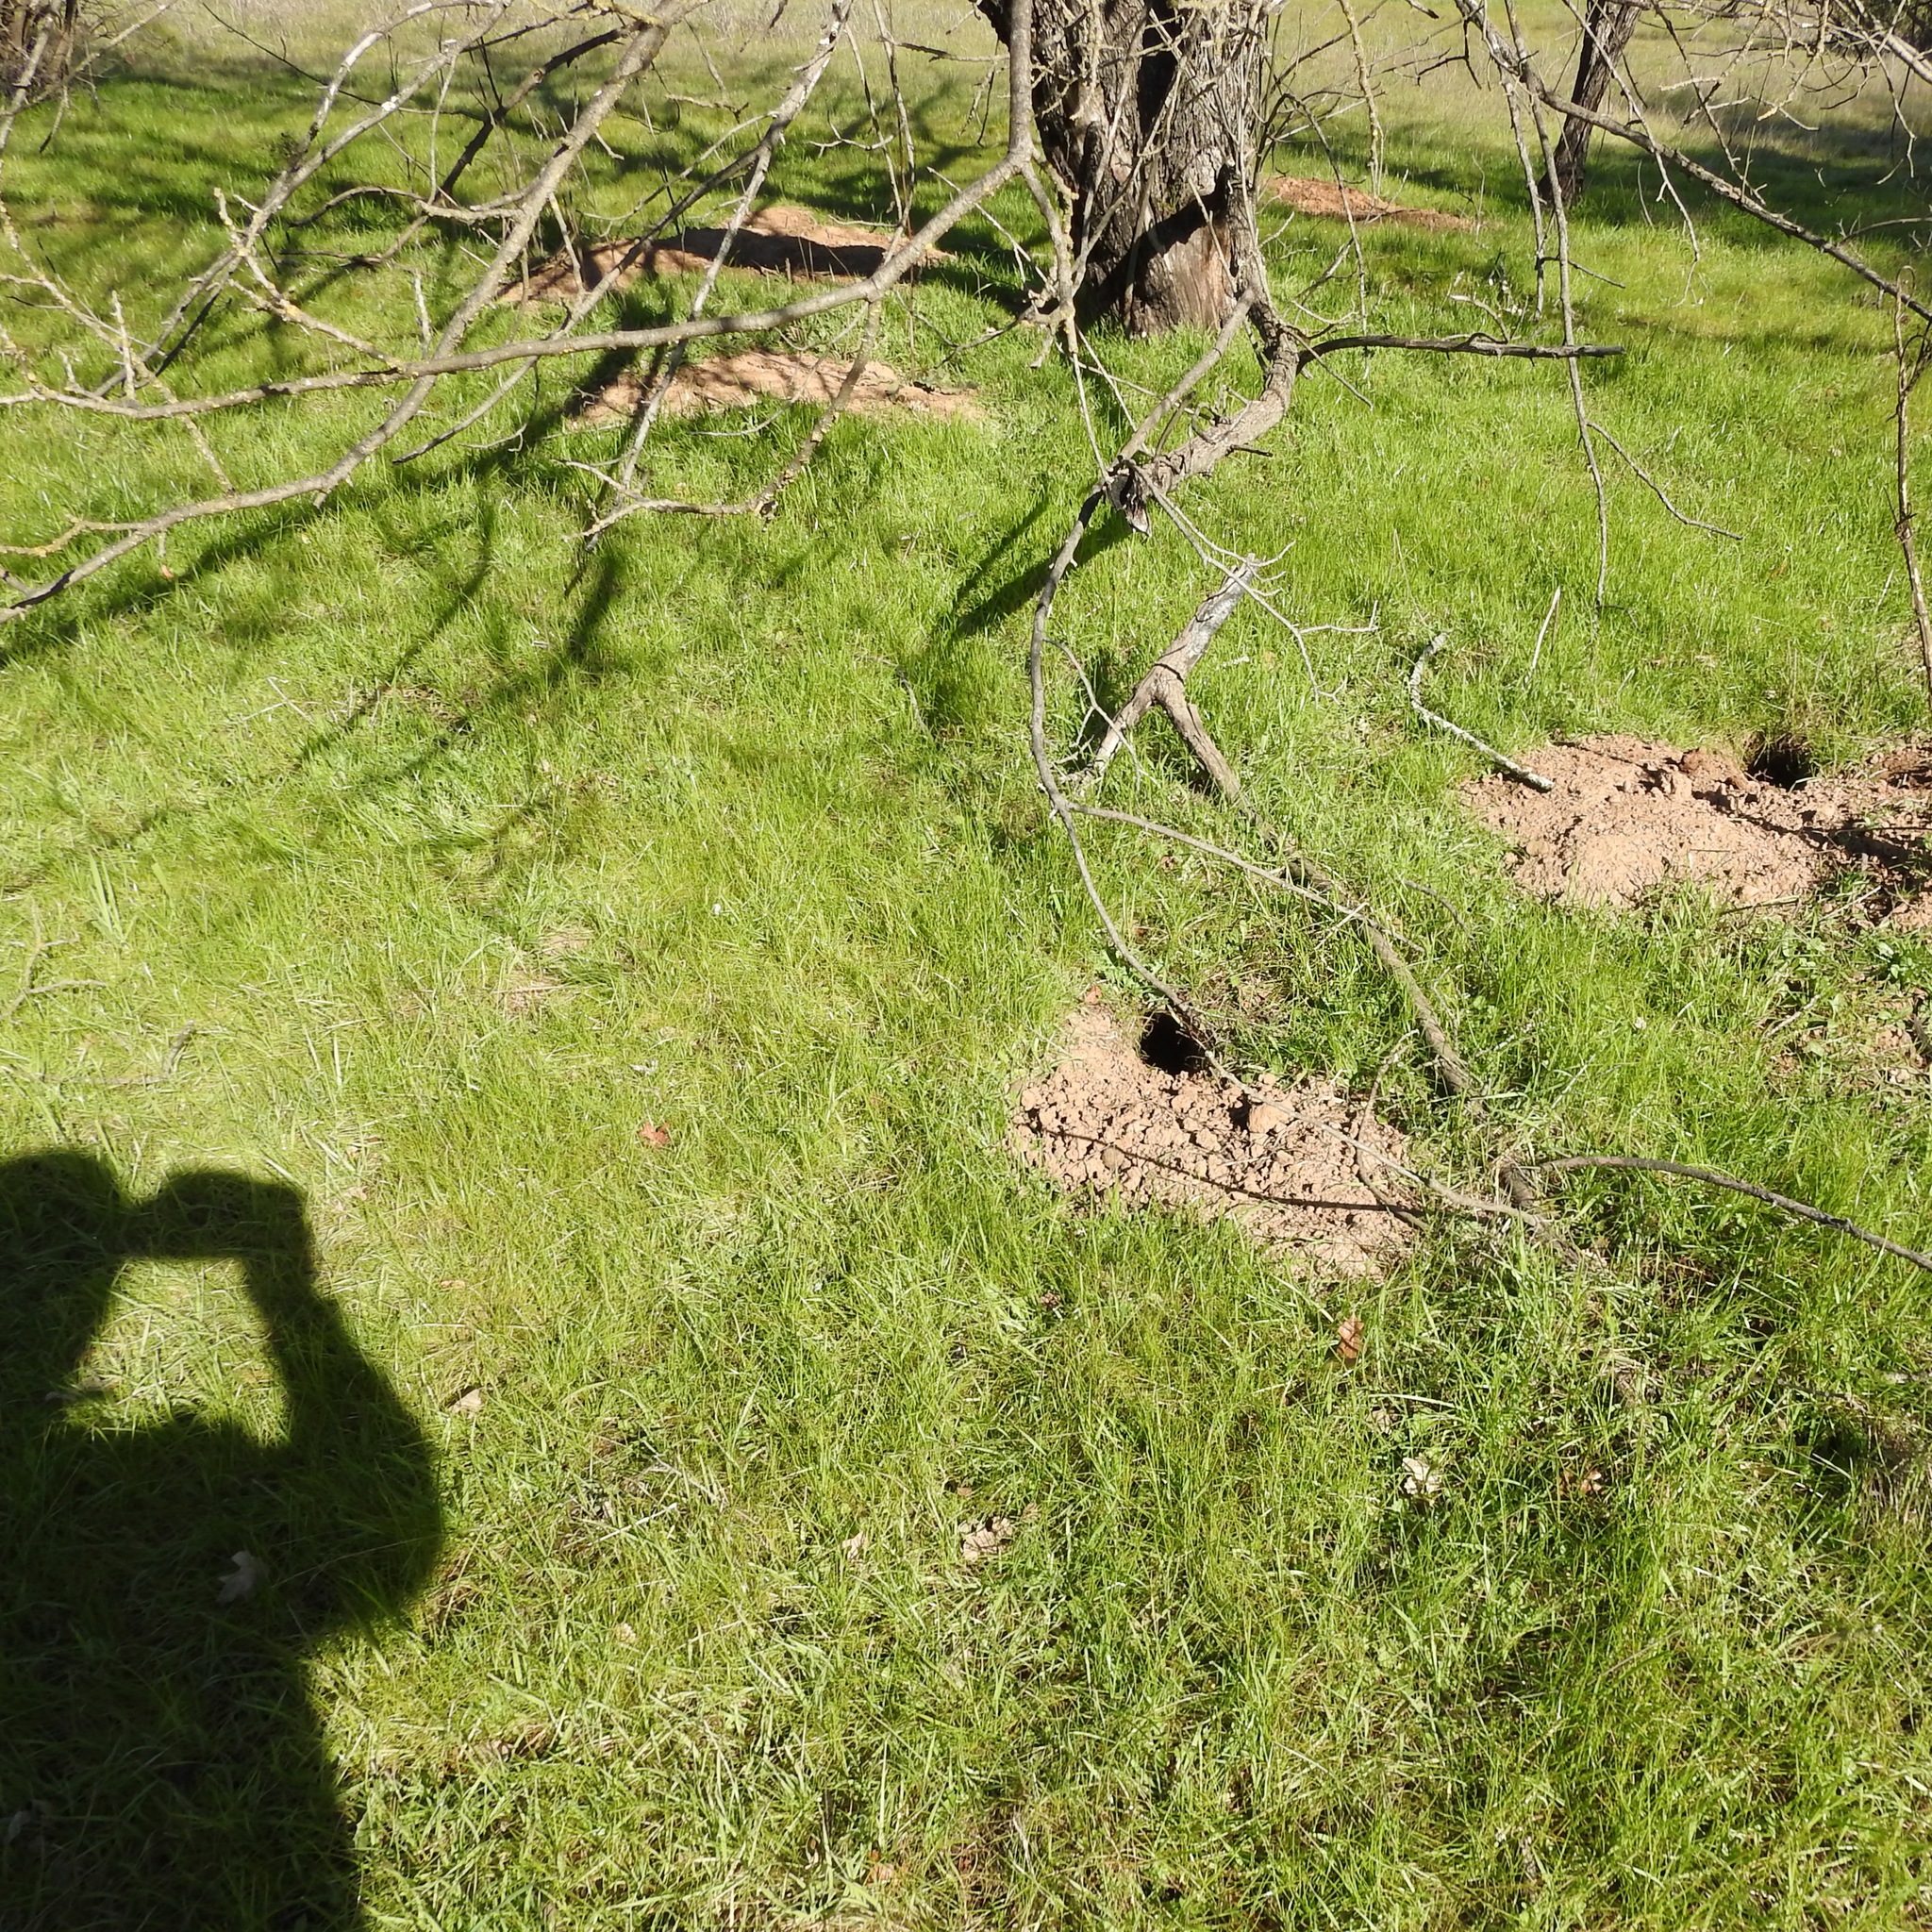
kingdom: Animalia
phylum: Chordata
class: Mammalia
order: Rodentia
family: Sciuridae
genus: Otospermophilus
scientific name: Otospermophilus beecheyi
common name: California ground squirrel
